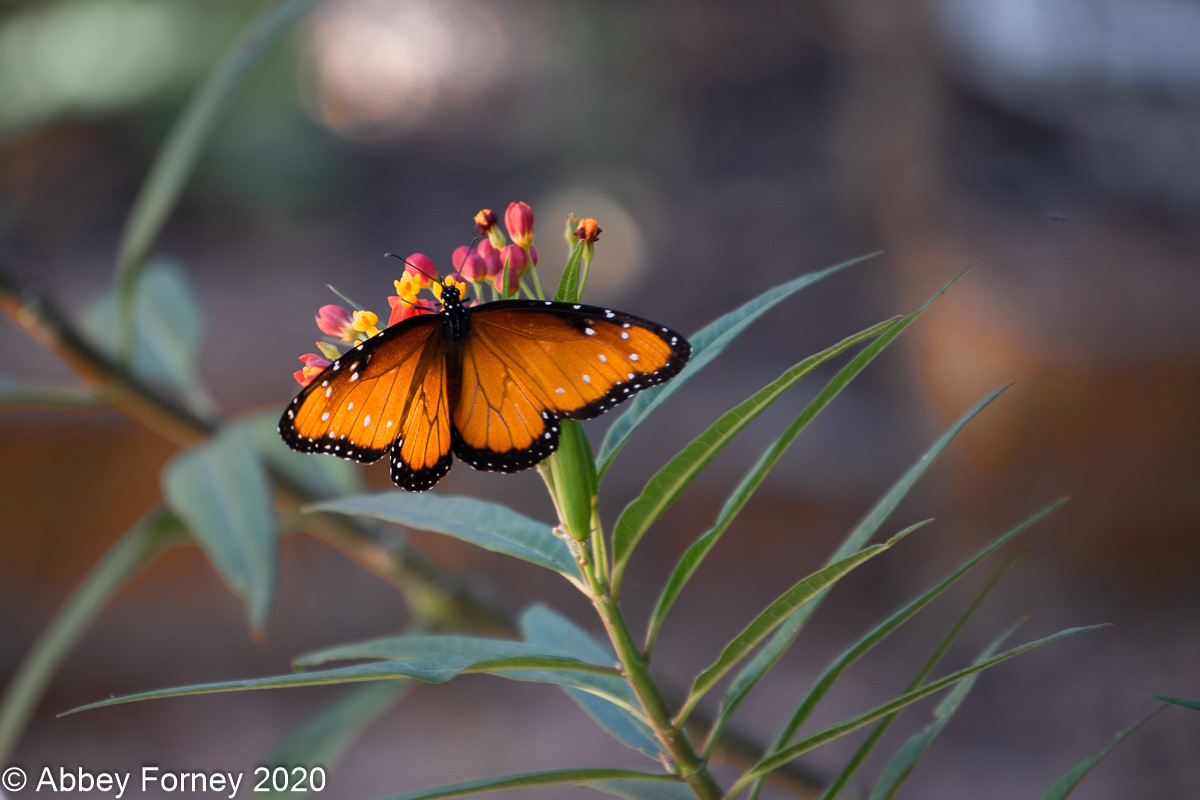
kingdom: Animalia
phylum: Arthropoda
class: Insecta
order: Lepidoptera
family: Nymphalidae
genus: Danaus
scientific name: Danaus gilippus
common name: Queen
